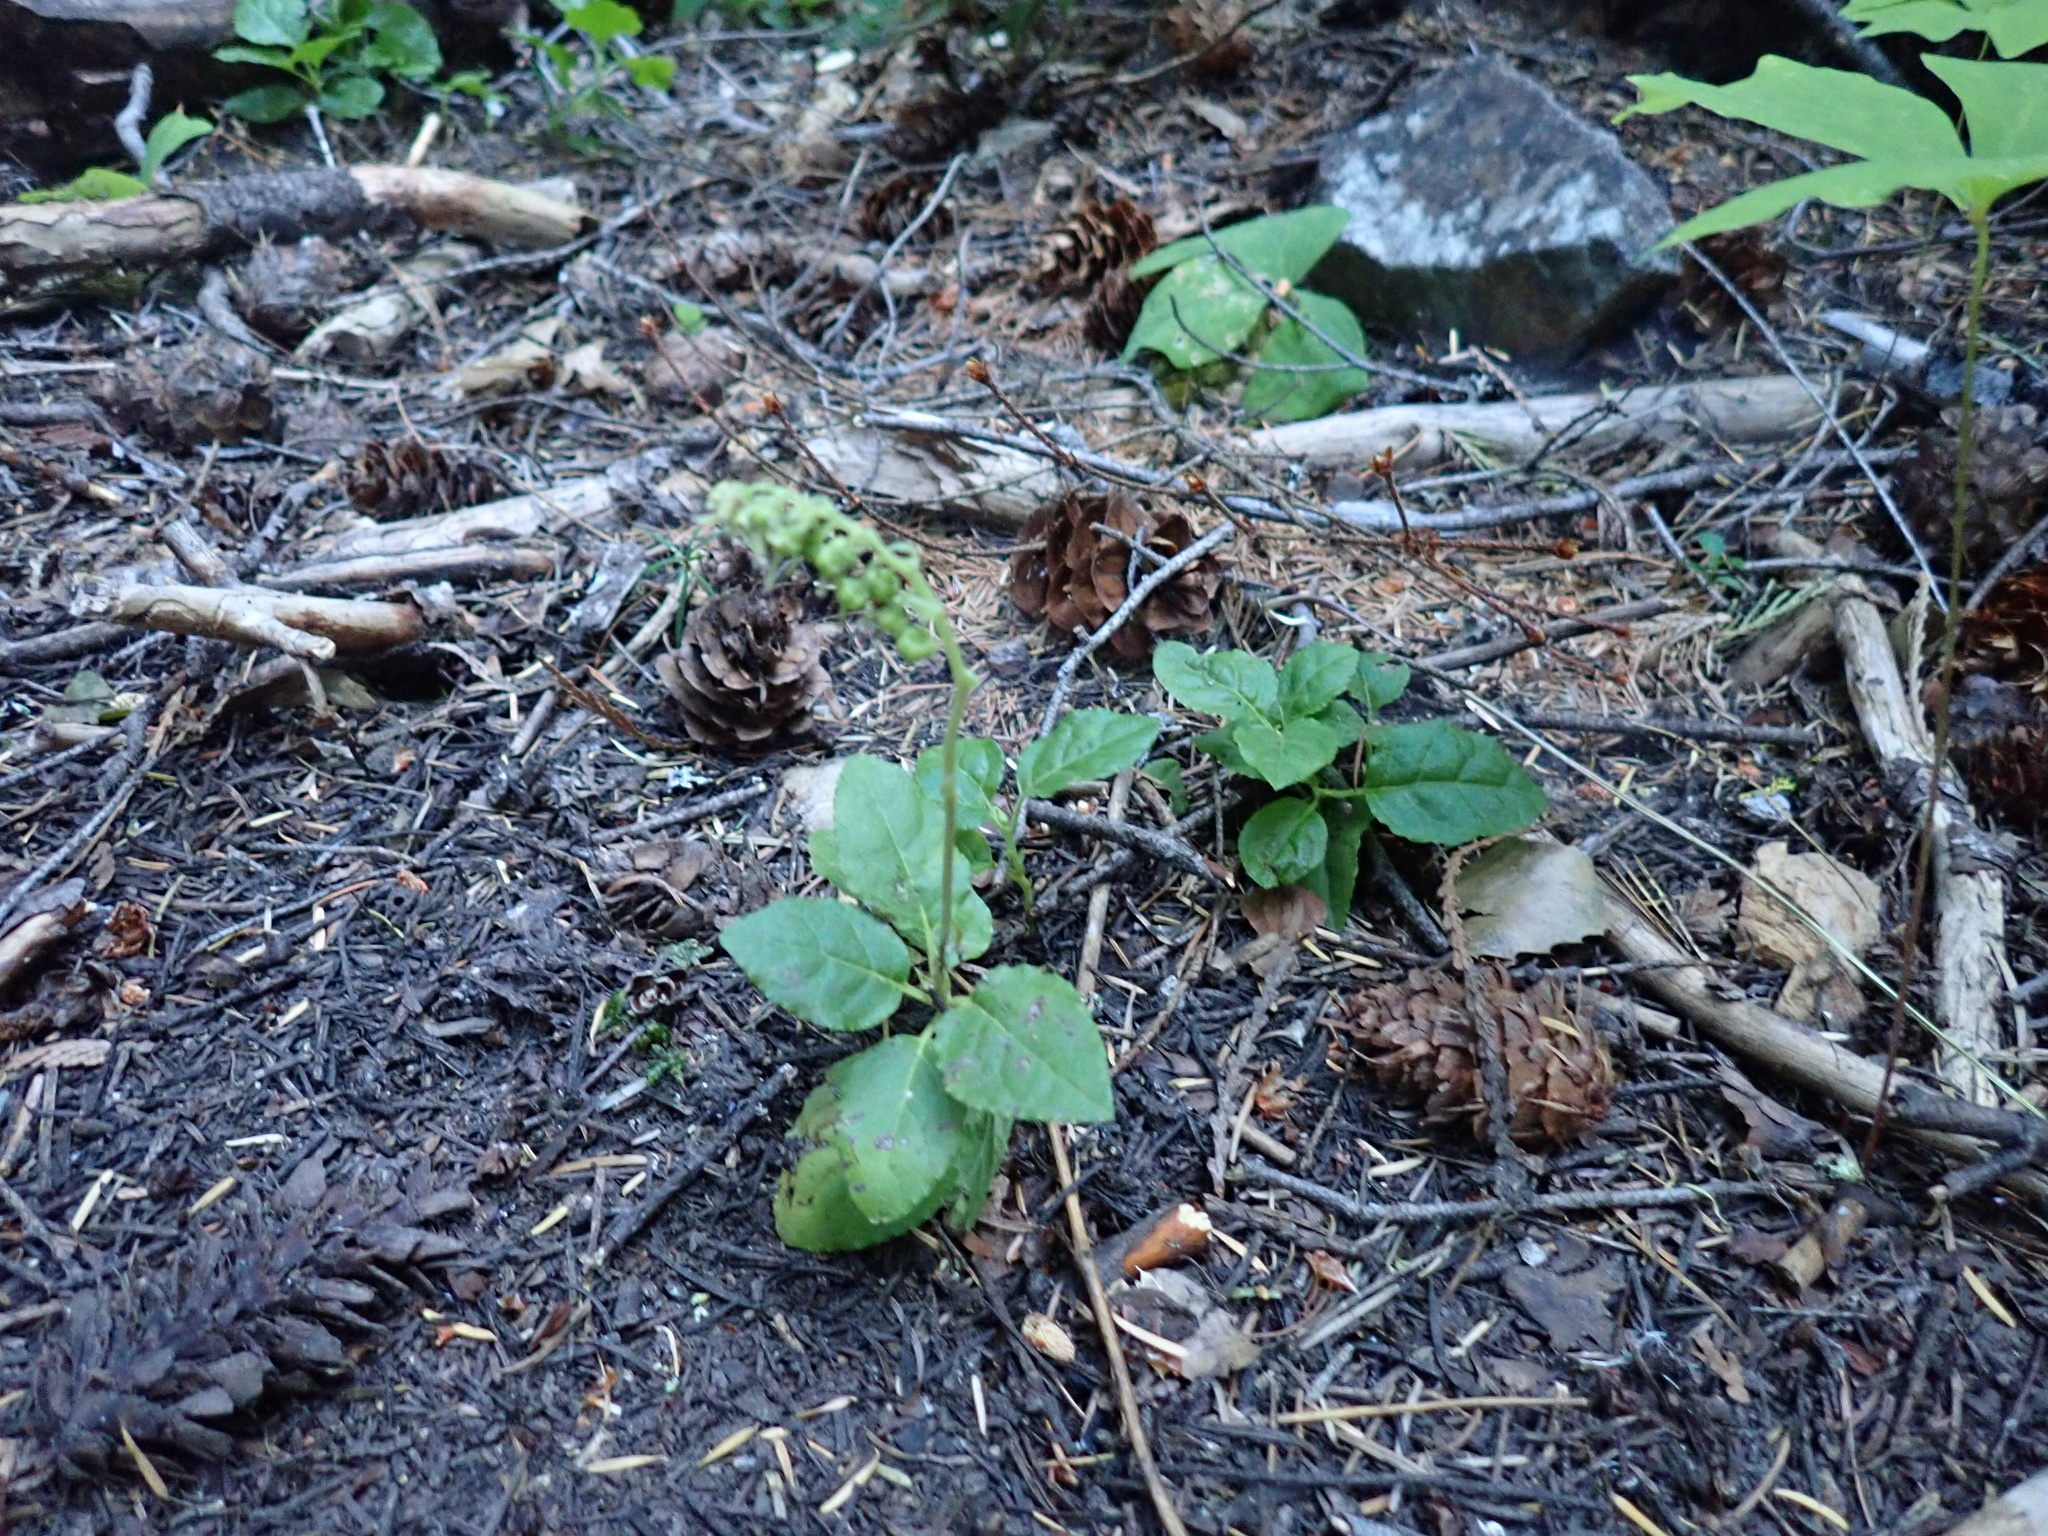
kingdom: Plantae
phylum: Tracheophyta
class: Magnoliopsida
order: Ericales
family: Ericaceae
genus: Orthilia
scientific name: Orthilia secunda
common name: One-sided orthilia
